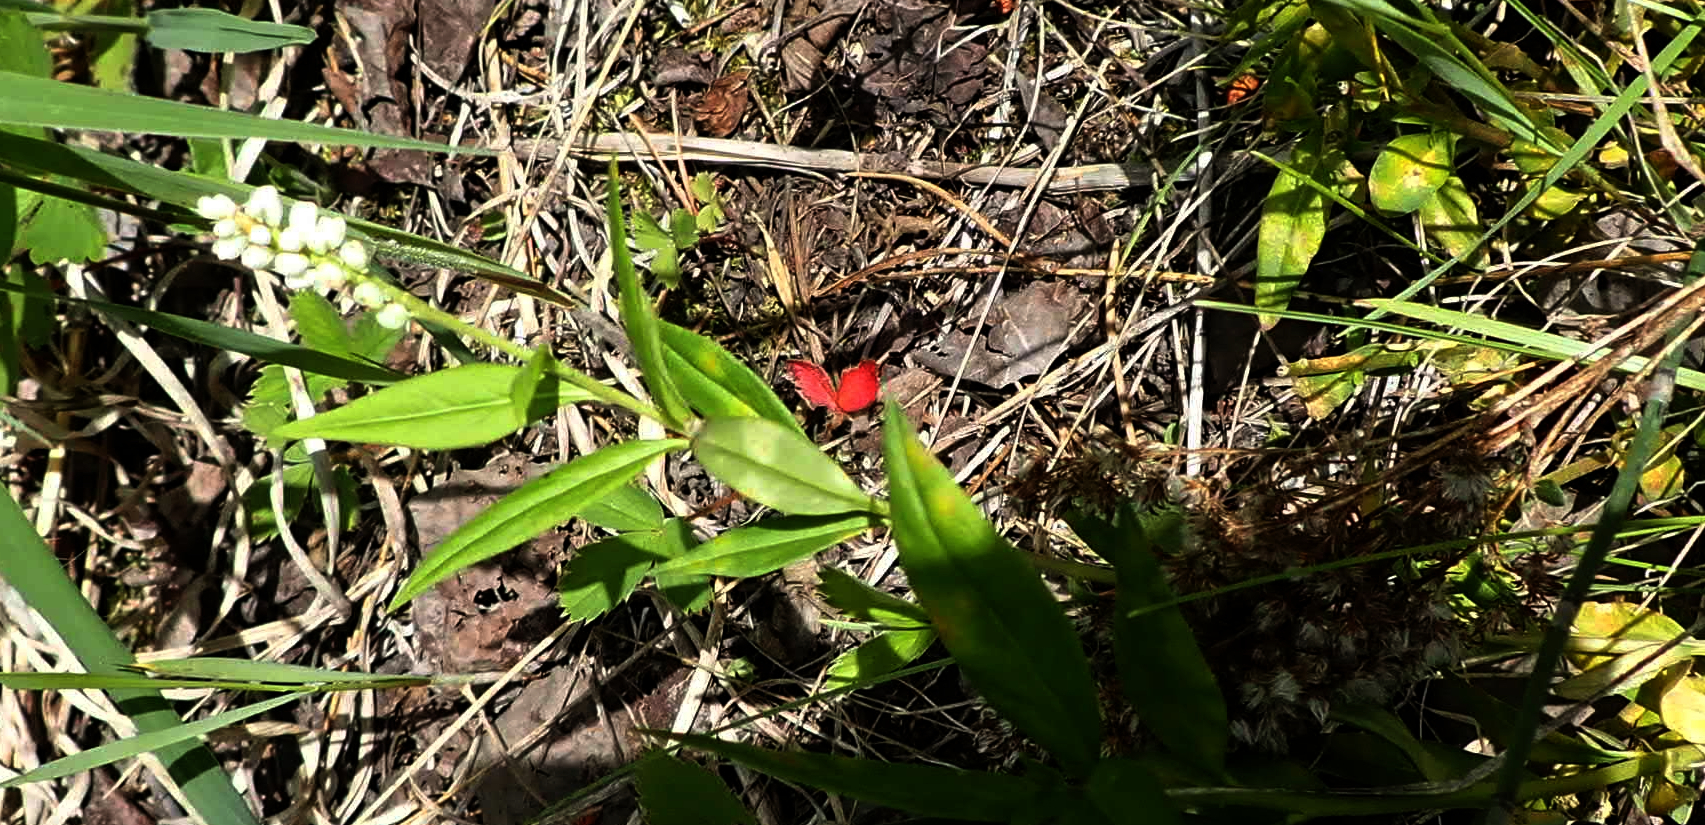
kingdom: Plantae
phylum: Tracheophyta
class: Magnoliopsida
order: Fabales
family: Polygalaceae
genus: Polygala
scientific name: Polygala senega
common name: Seneca snakeroot
